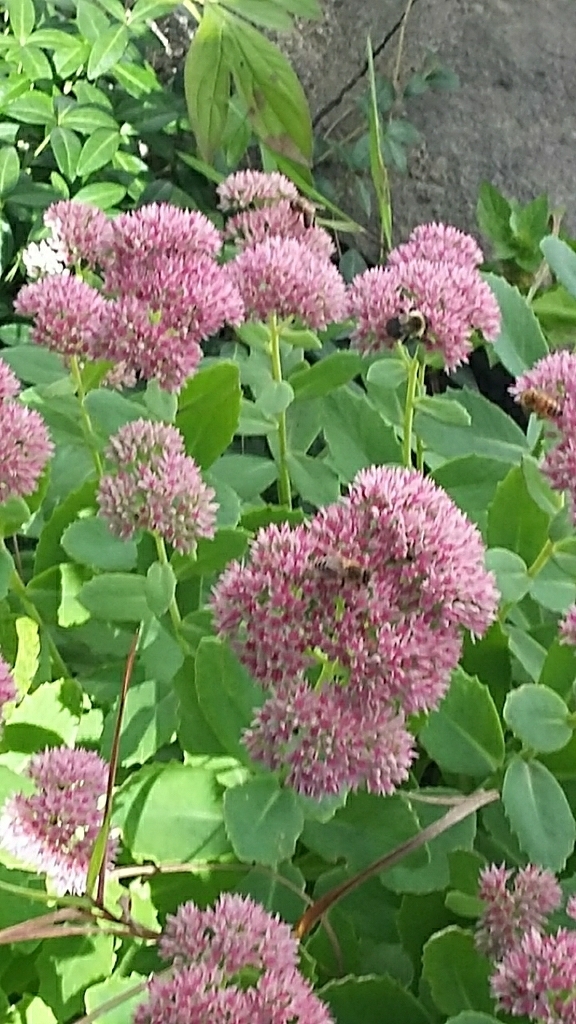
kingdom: Animalia
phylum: Arthropoda
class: Insecta
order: Hymenoptera
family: Apidae
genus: Apis
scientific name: Apis mellifera
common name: Honey bee
